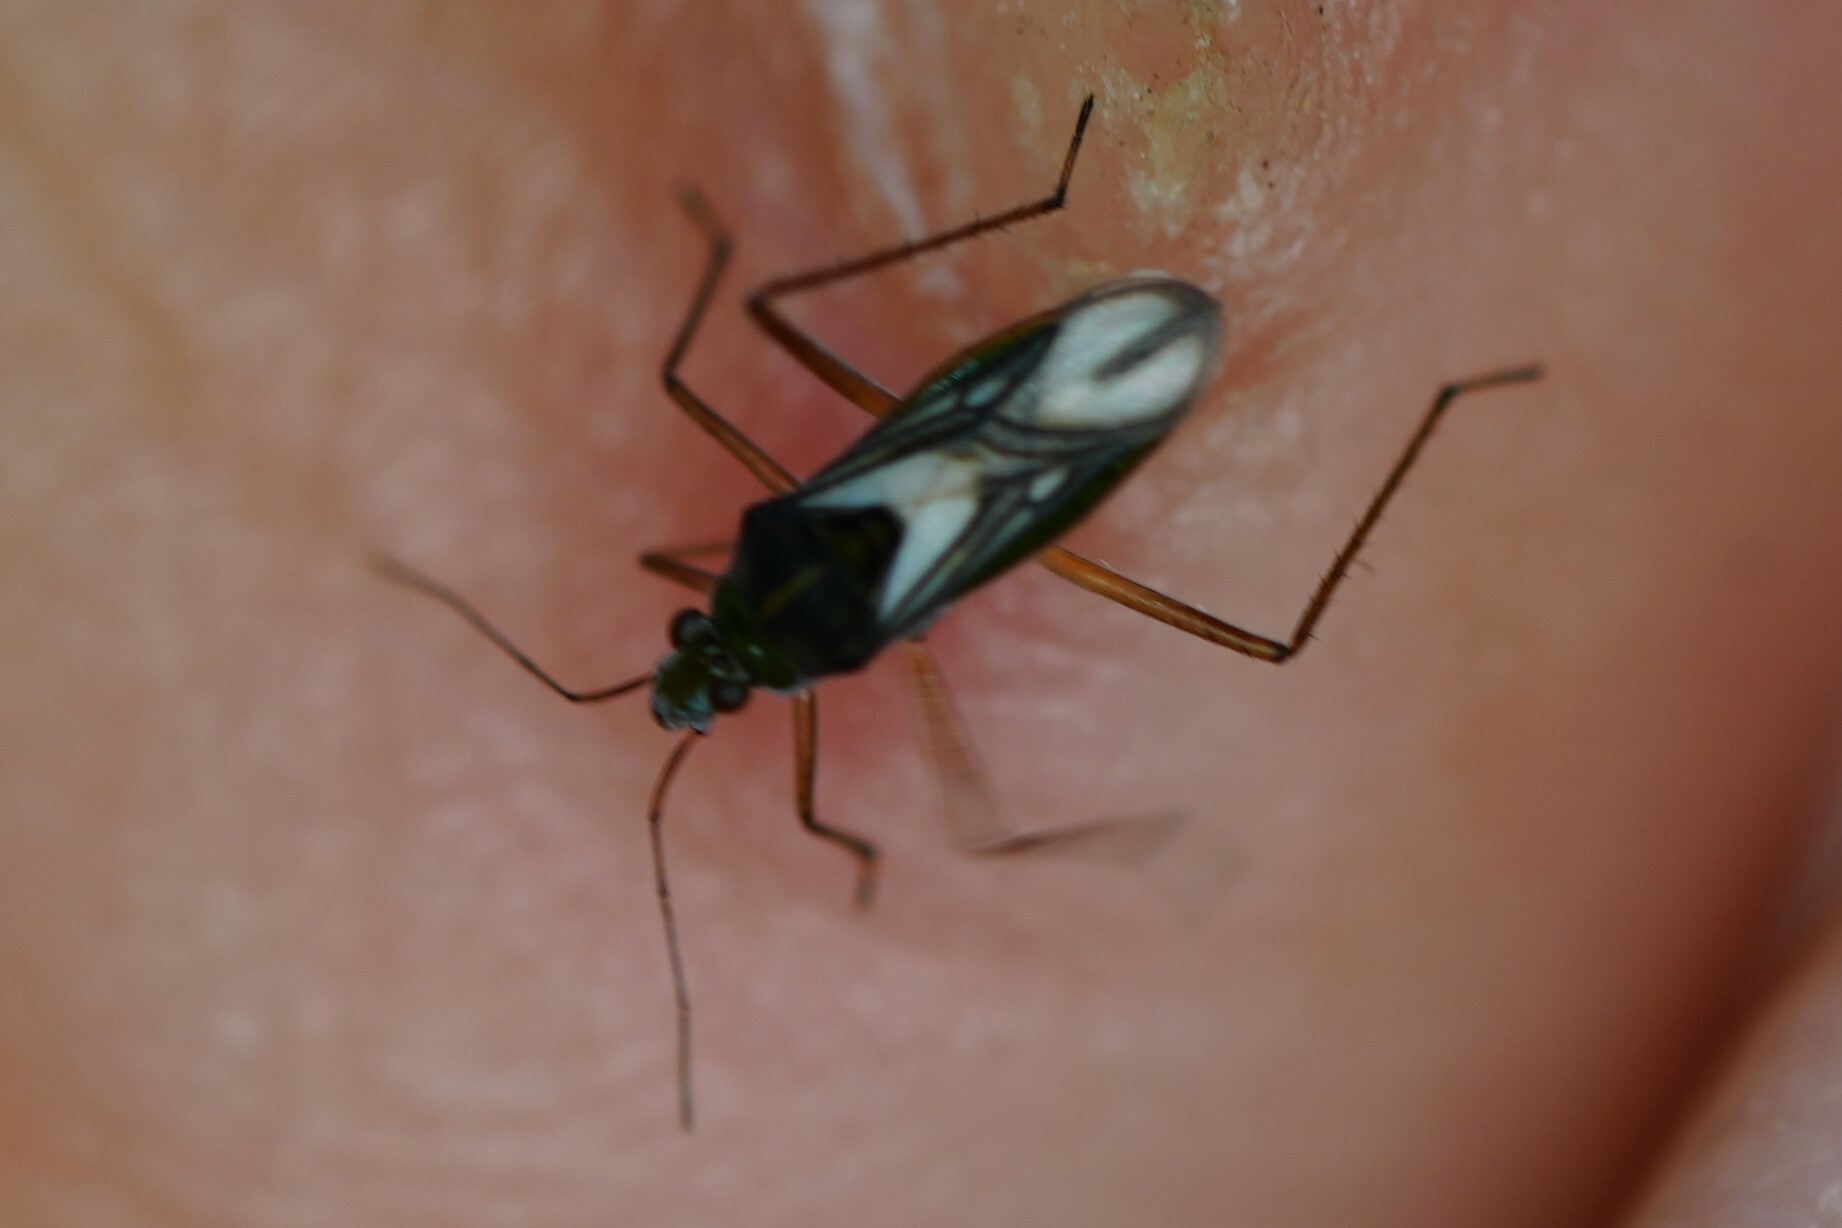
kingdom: Animalia
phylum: Arthropoda
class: Insecta
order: Hemiptera
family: Mesoveliidae
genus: Mesovelia
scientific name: Mesovelia mulsanti
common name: Water treaders
